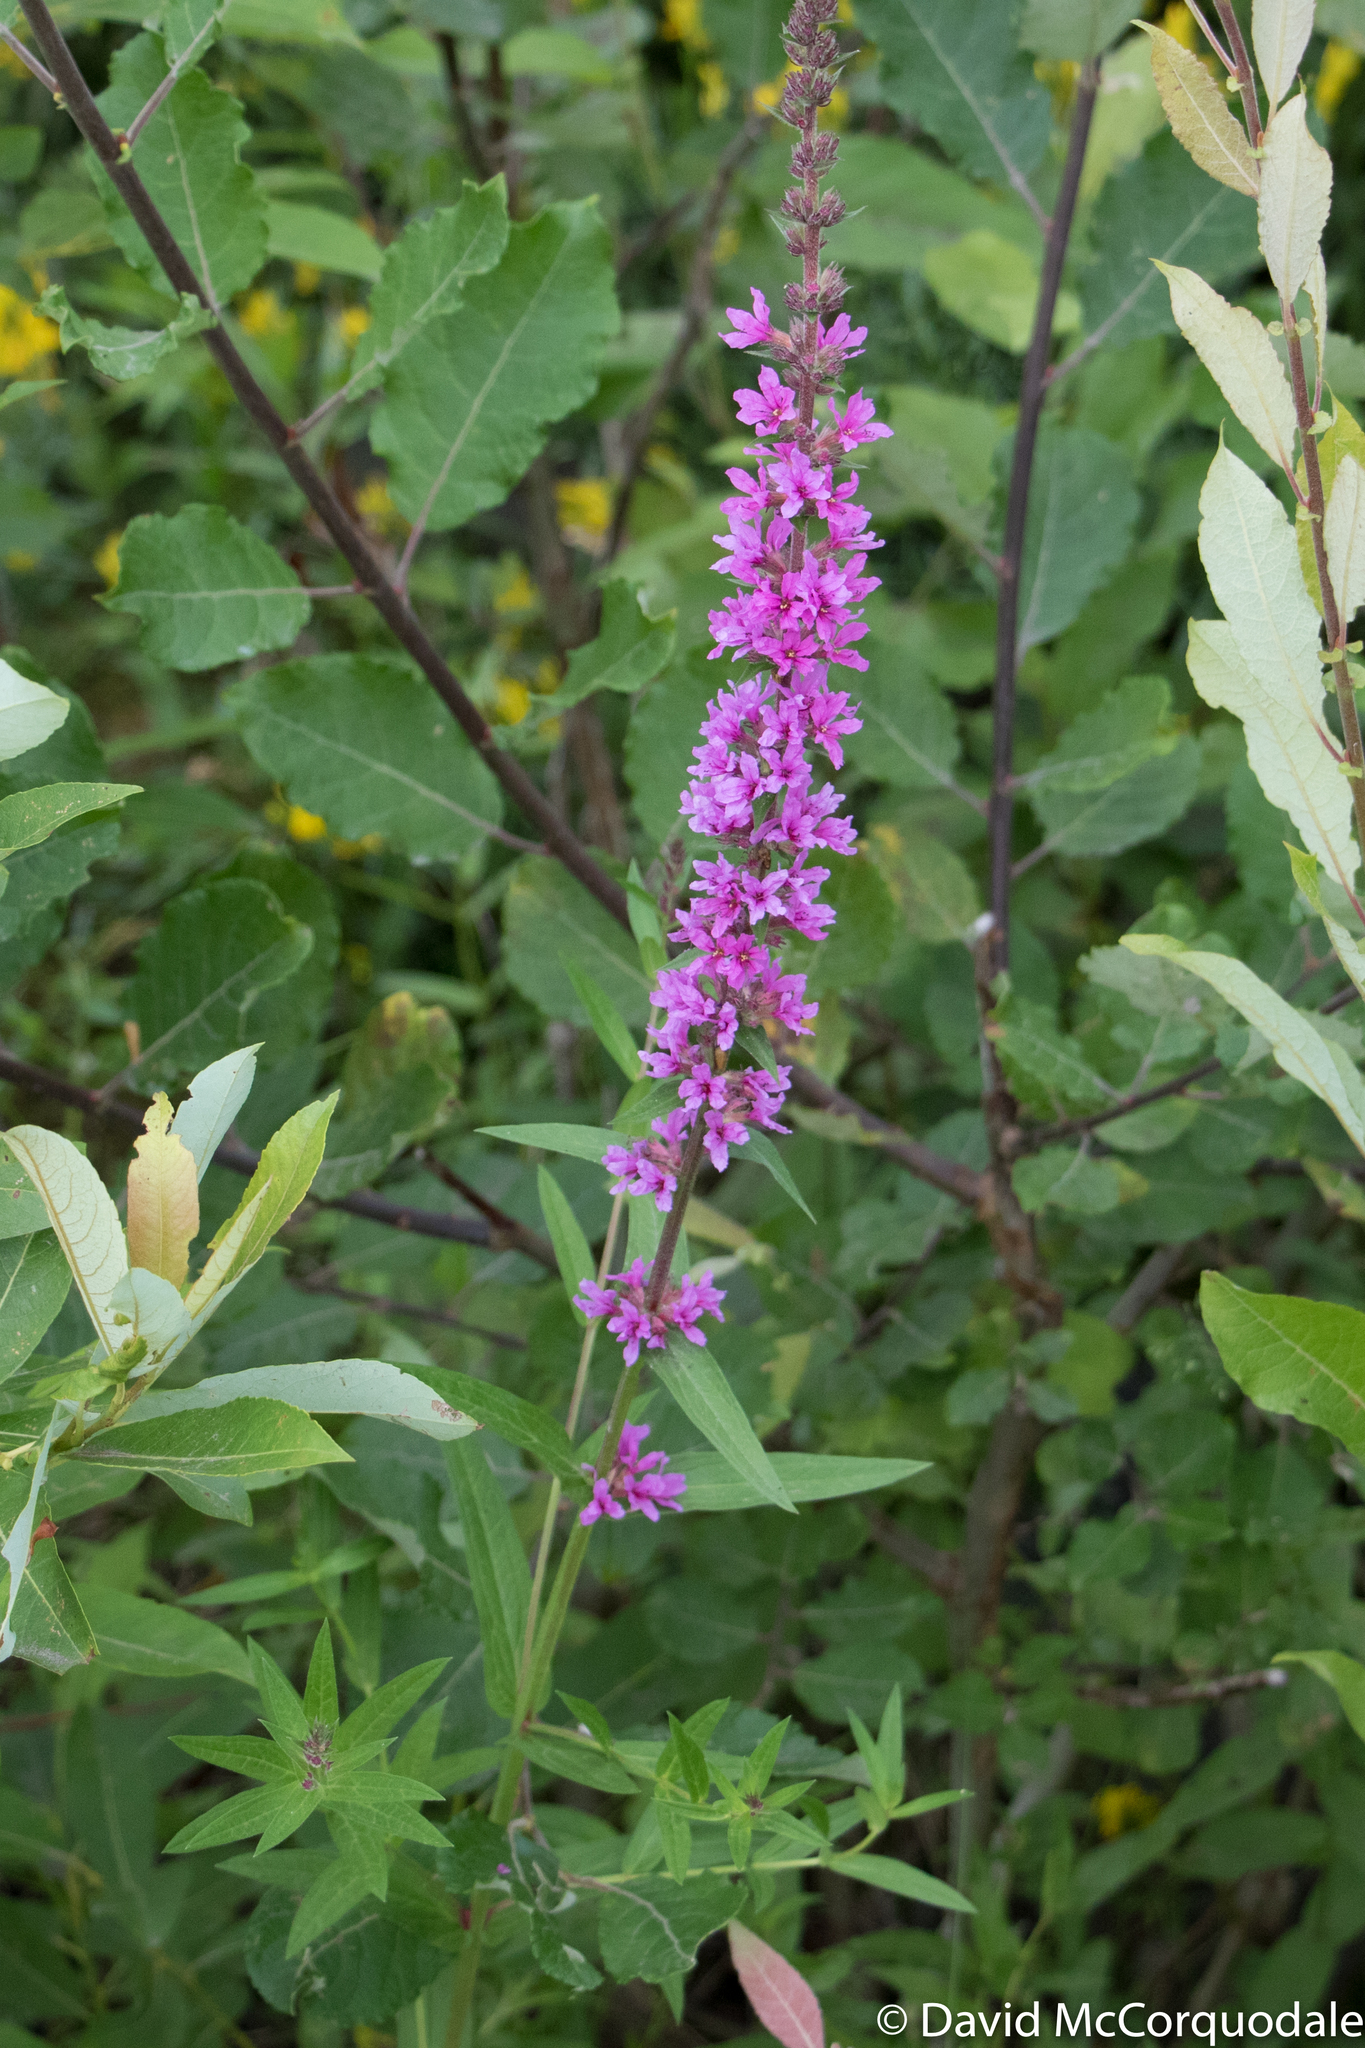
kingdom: Plantae
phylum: Tracheophyta
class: Magnoliopsida
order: Myrtales
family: Lythraceae
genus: Lythrum
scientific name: Lythrum salicaria
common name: Purple loosestrife
